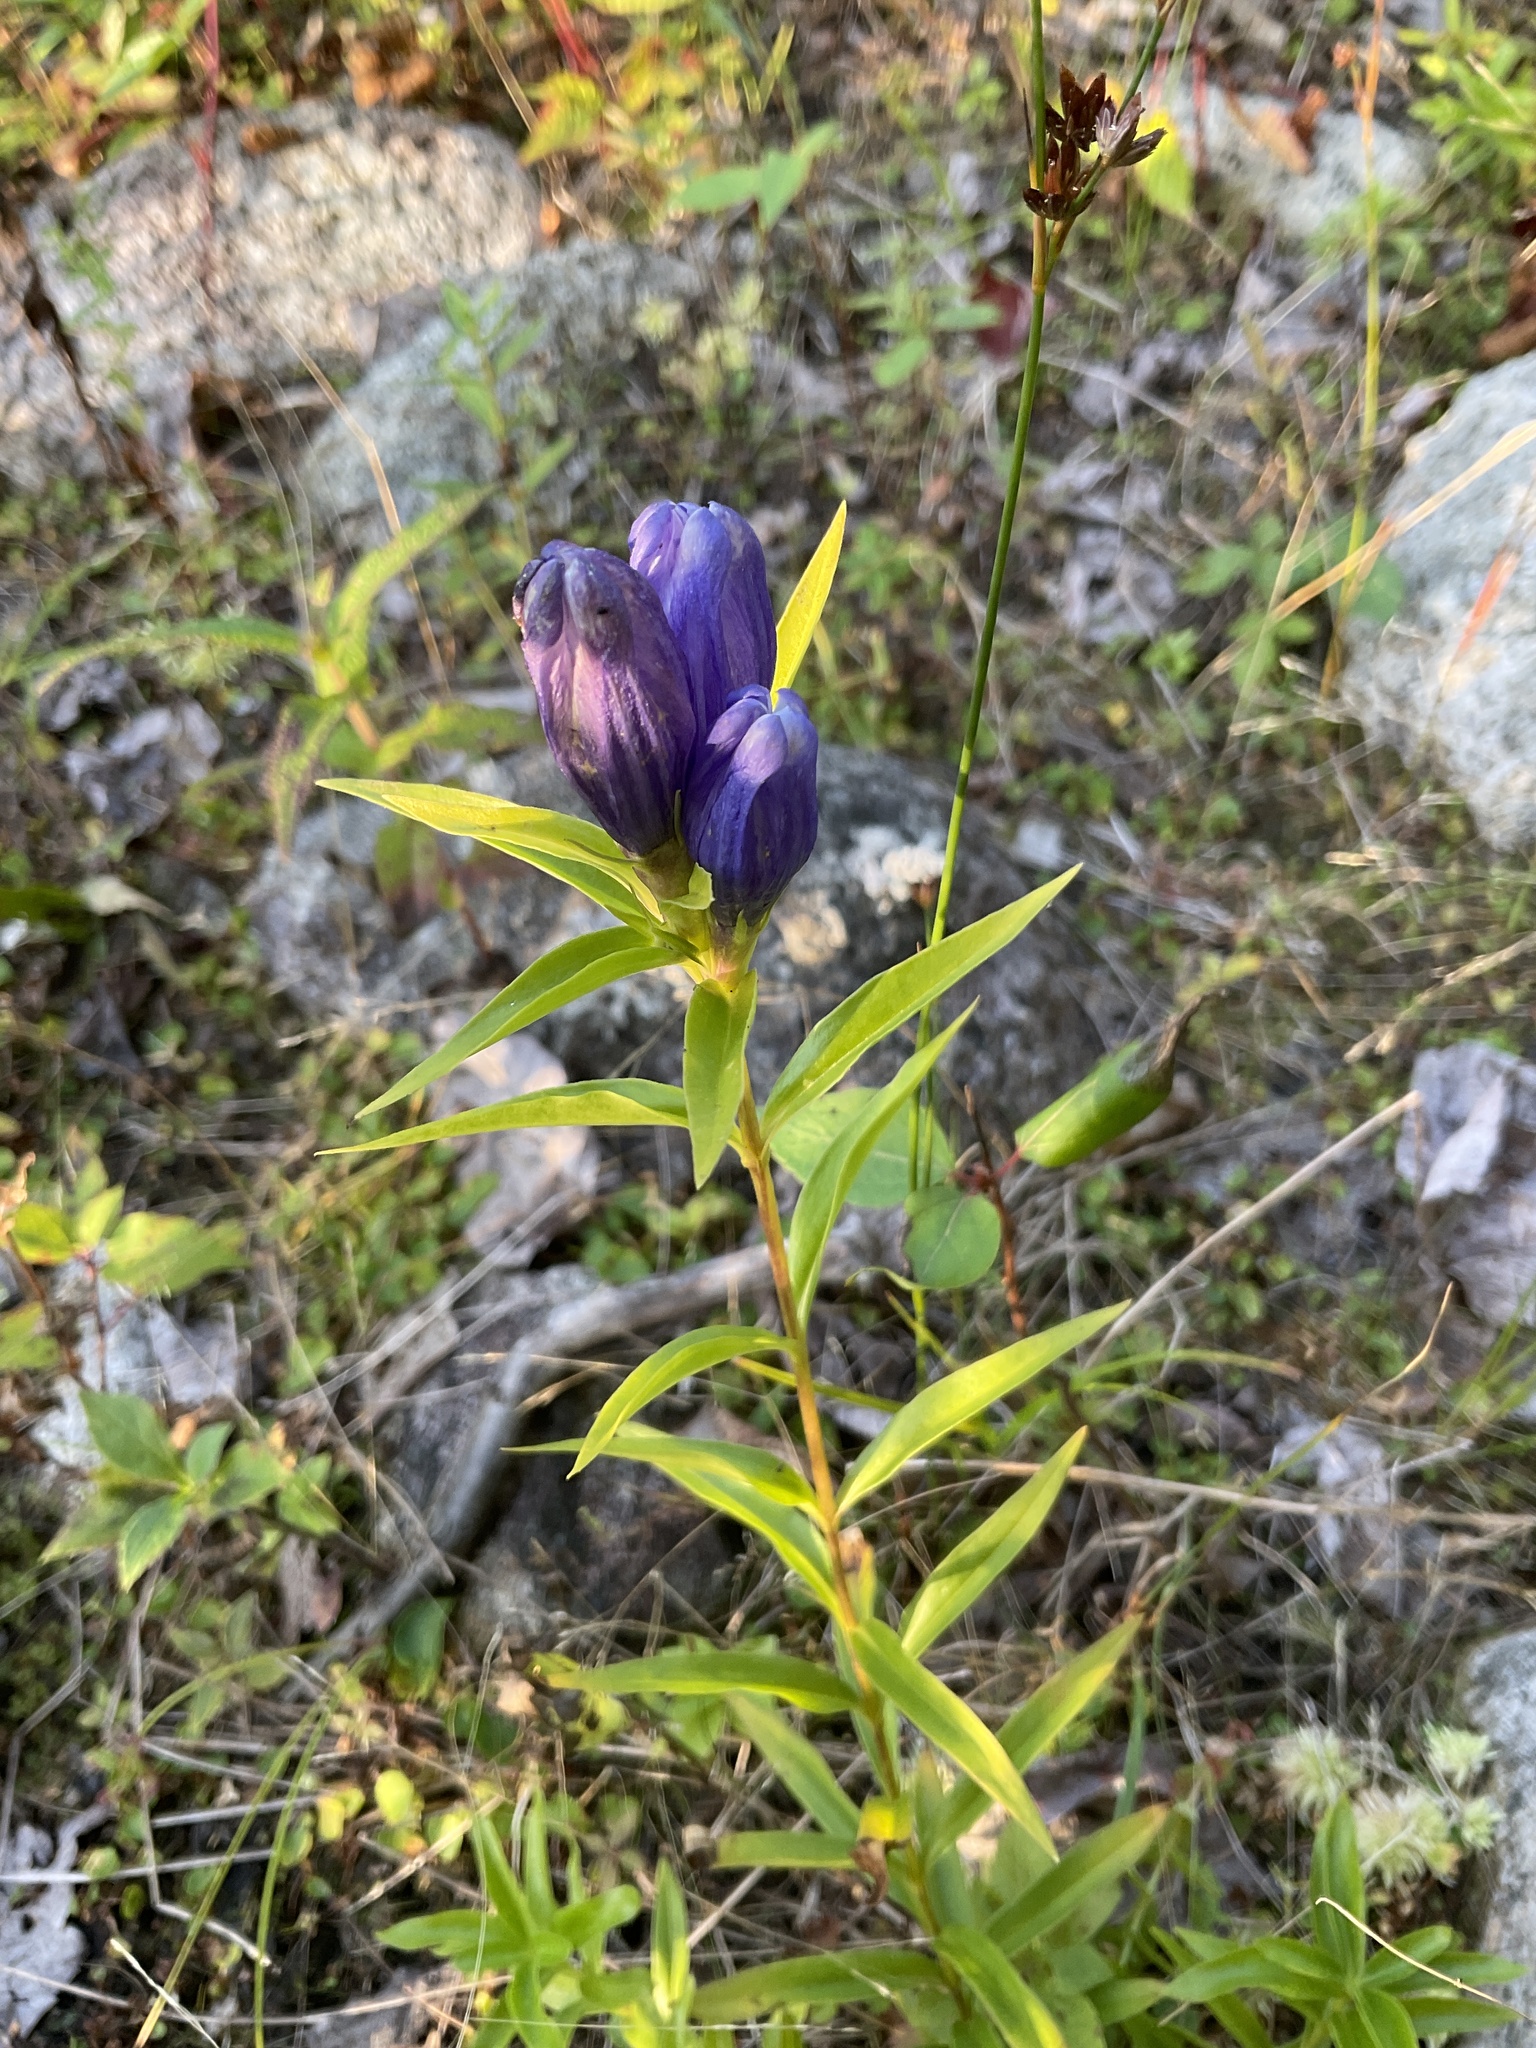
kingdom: Plantae
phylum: Tracheophyta
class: Magnoliopsida
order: Gentianales
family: Gentianaceae
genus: Gentiana
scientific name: Gentiana linearis
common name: Bastard gentian
